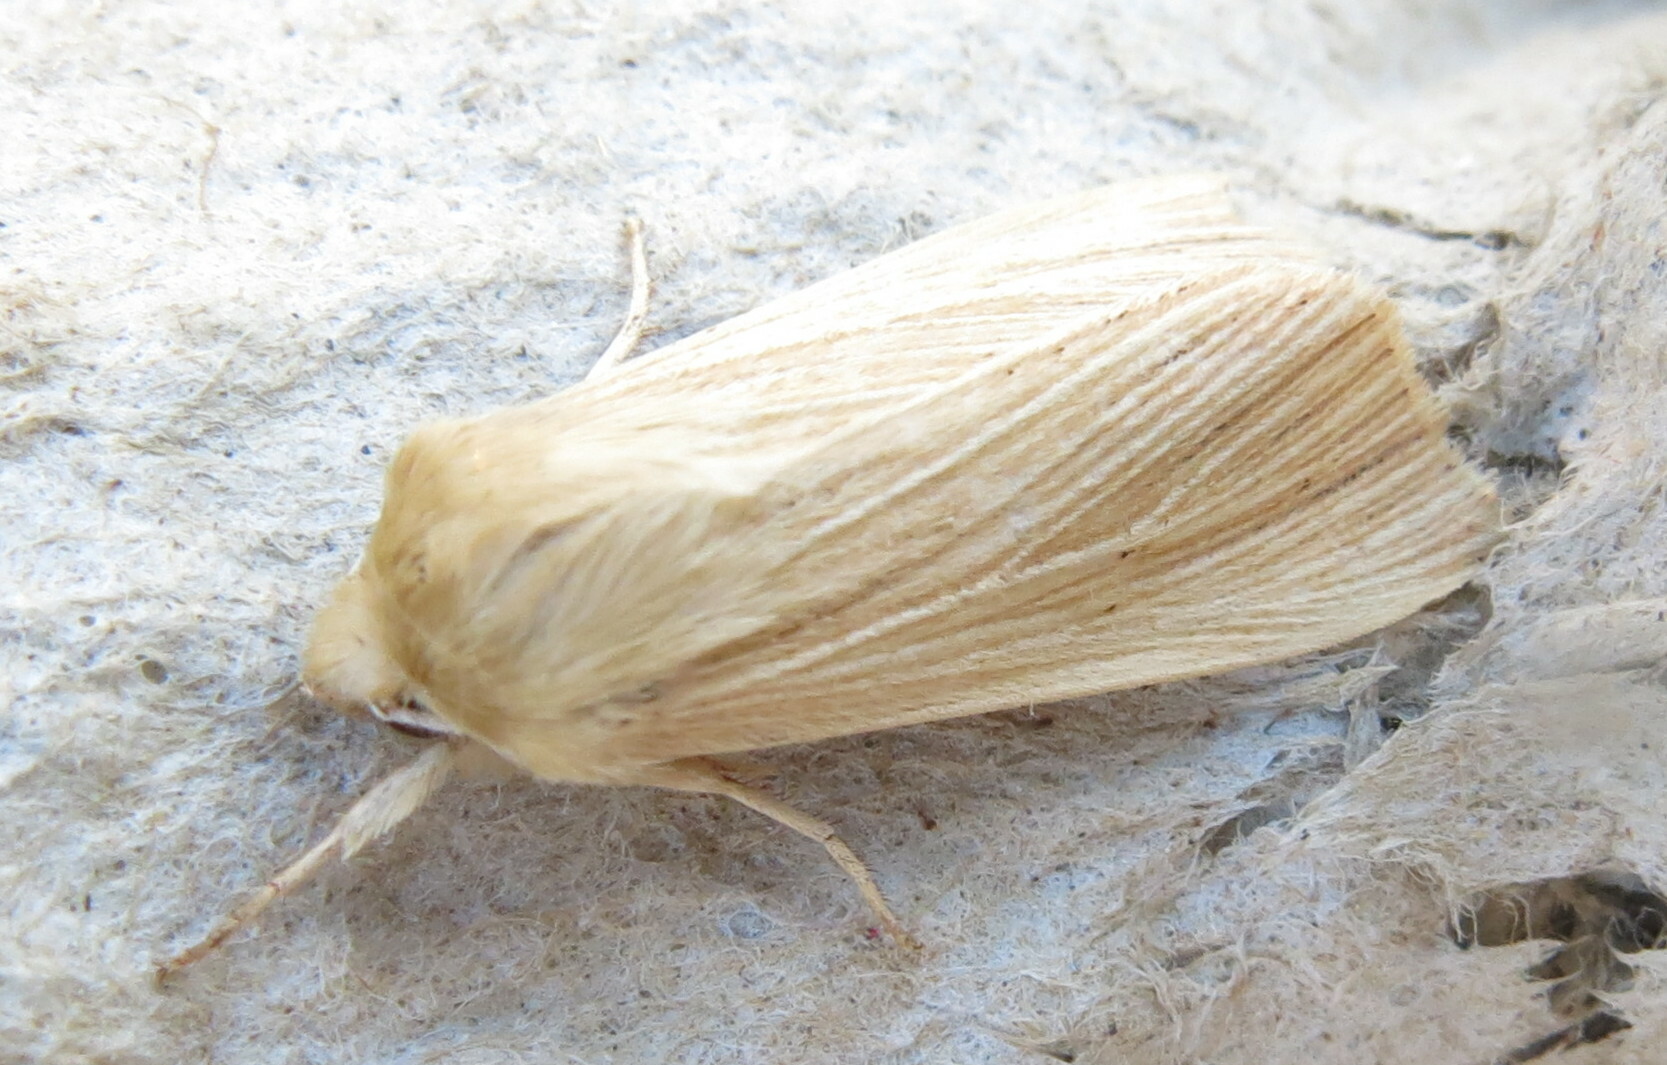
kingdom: Animalia
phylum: Arthropoda
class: Insecta
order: Lepidoptera
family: Noctuidae
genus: Mythimna
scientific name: Mythimna pallens
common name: Common wainscot
